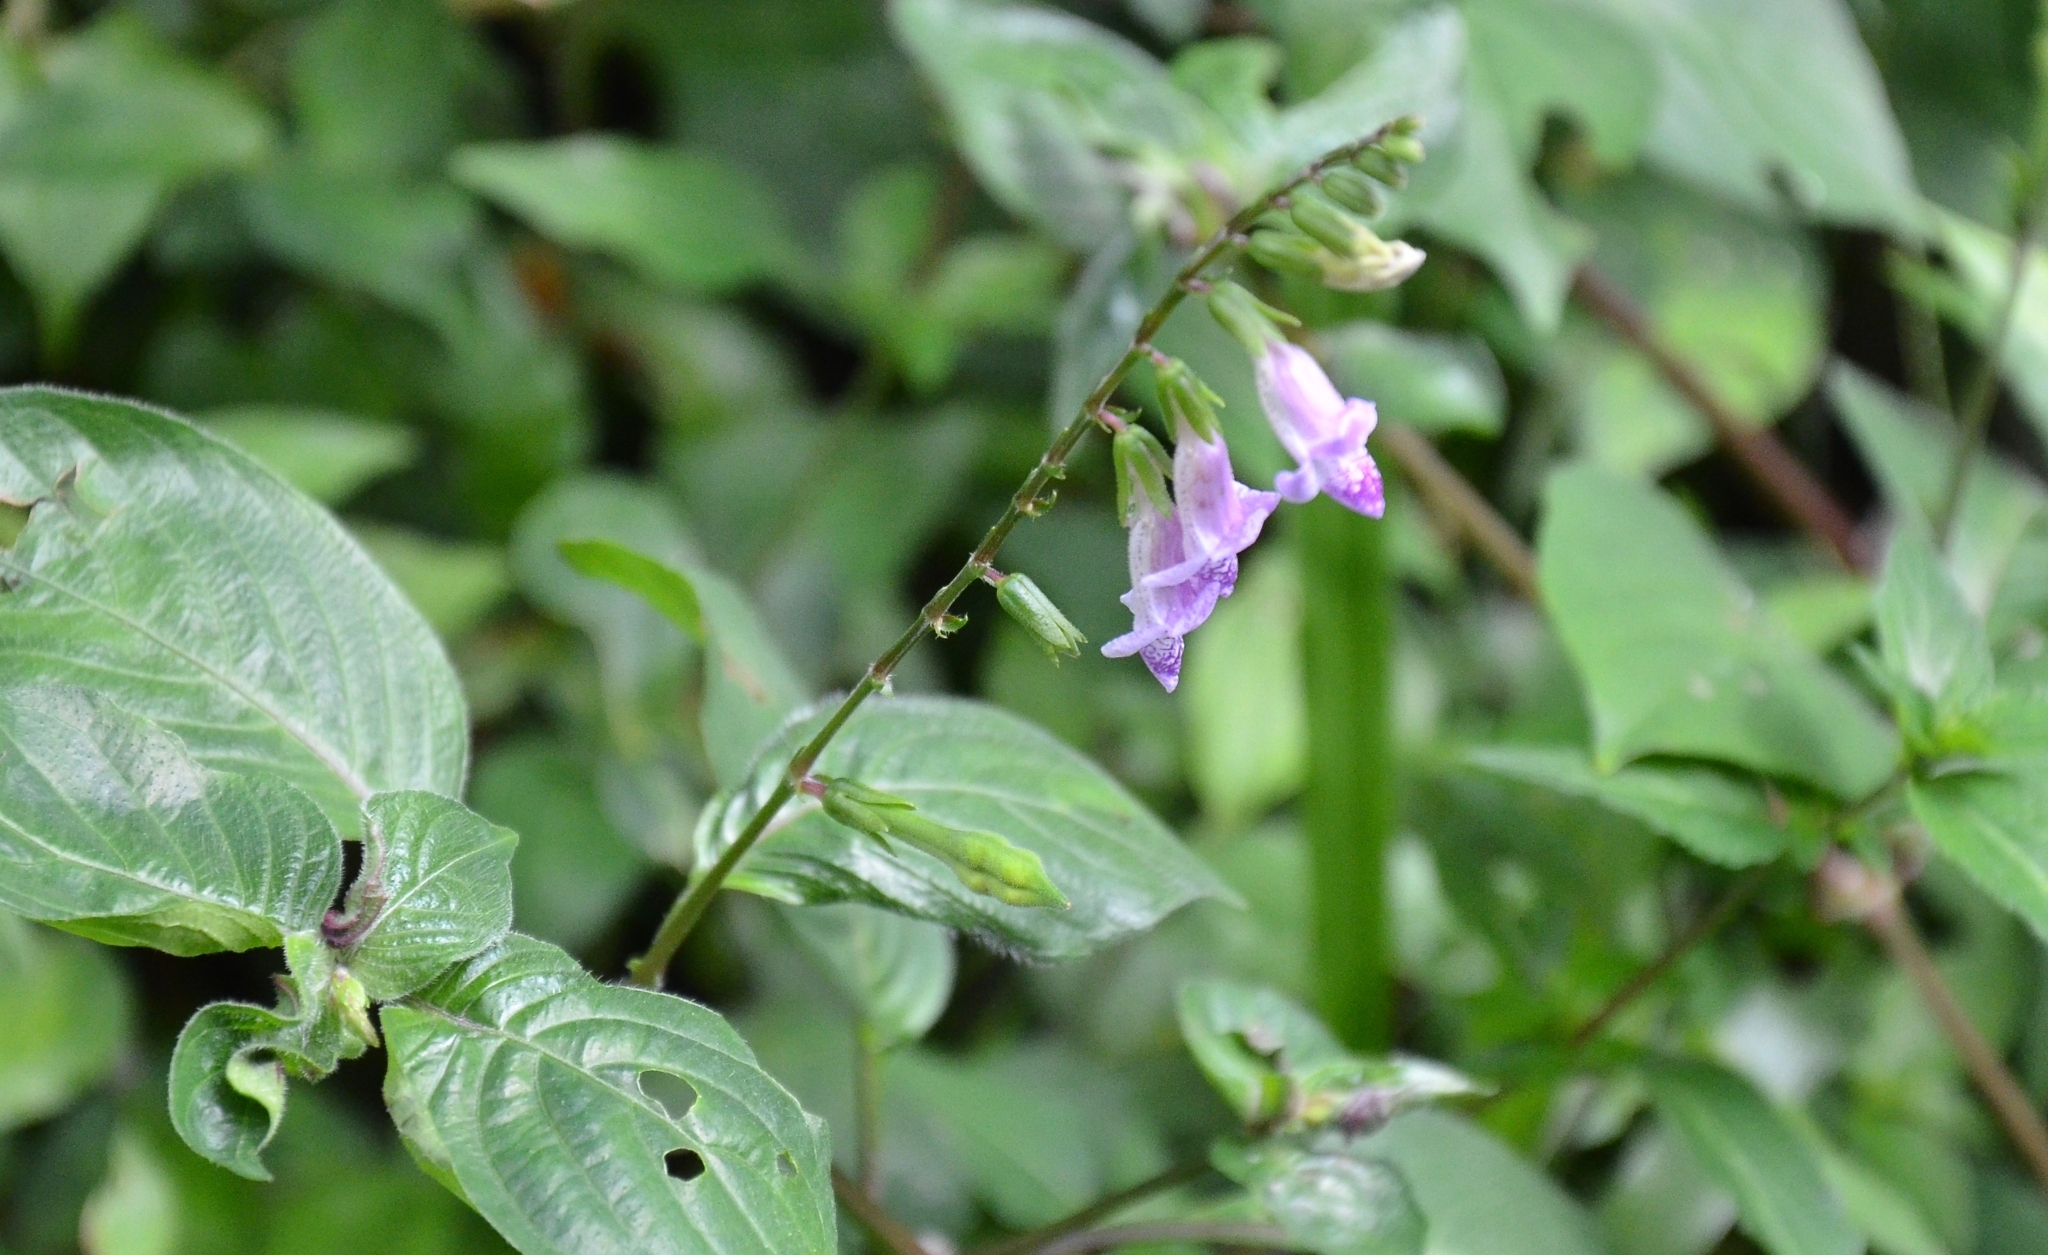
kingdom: Plantae
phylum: Tracheophyta
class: Magnoliopsida
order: Lamiales
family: Acanthaceae
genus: Asystasia
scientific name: Asystasia dalzelliana
